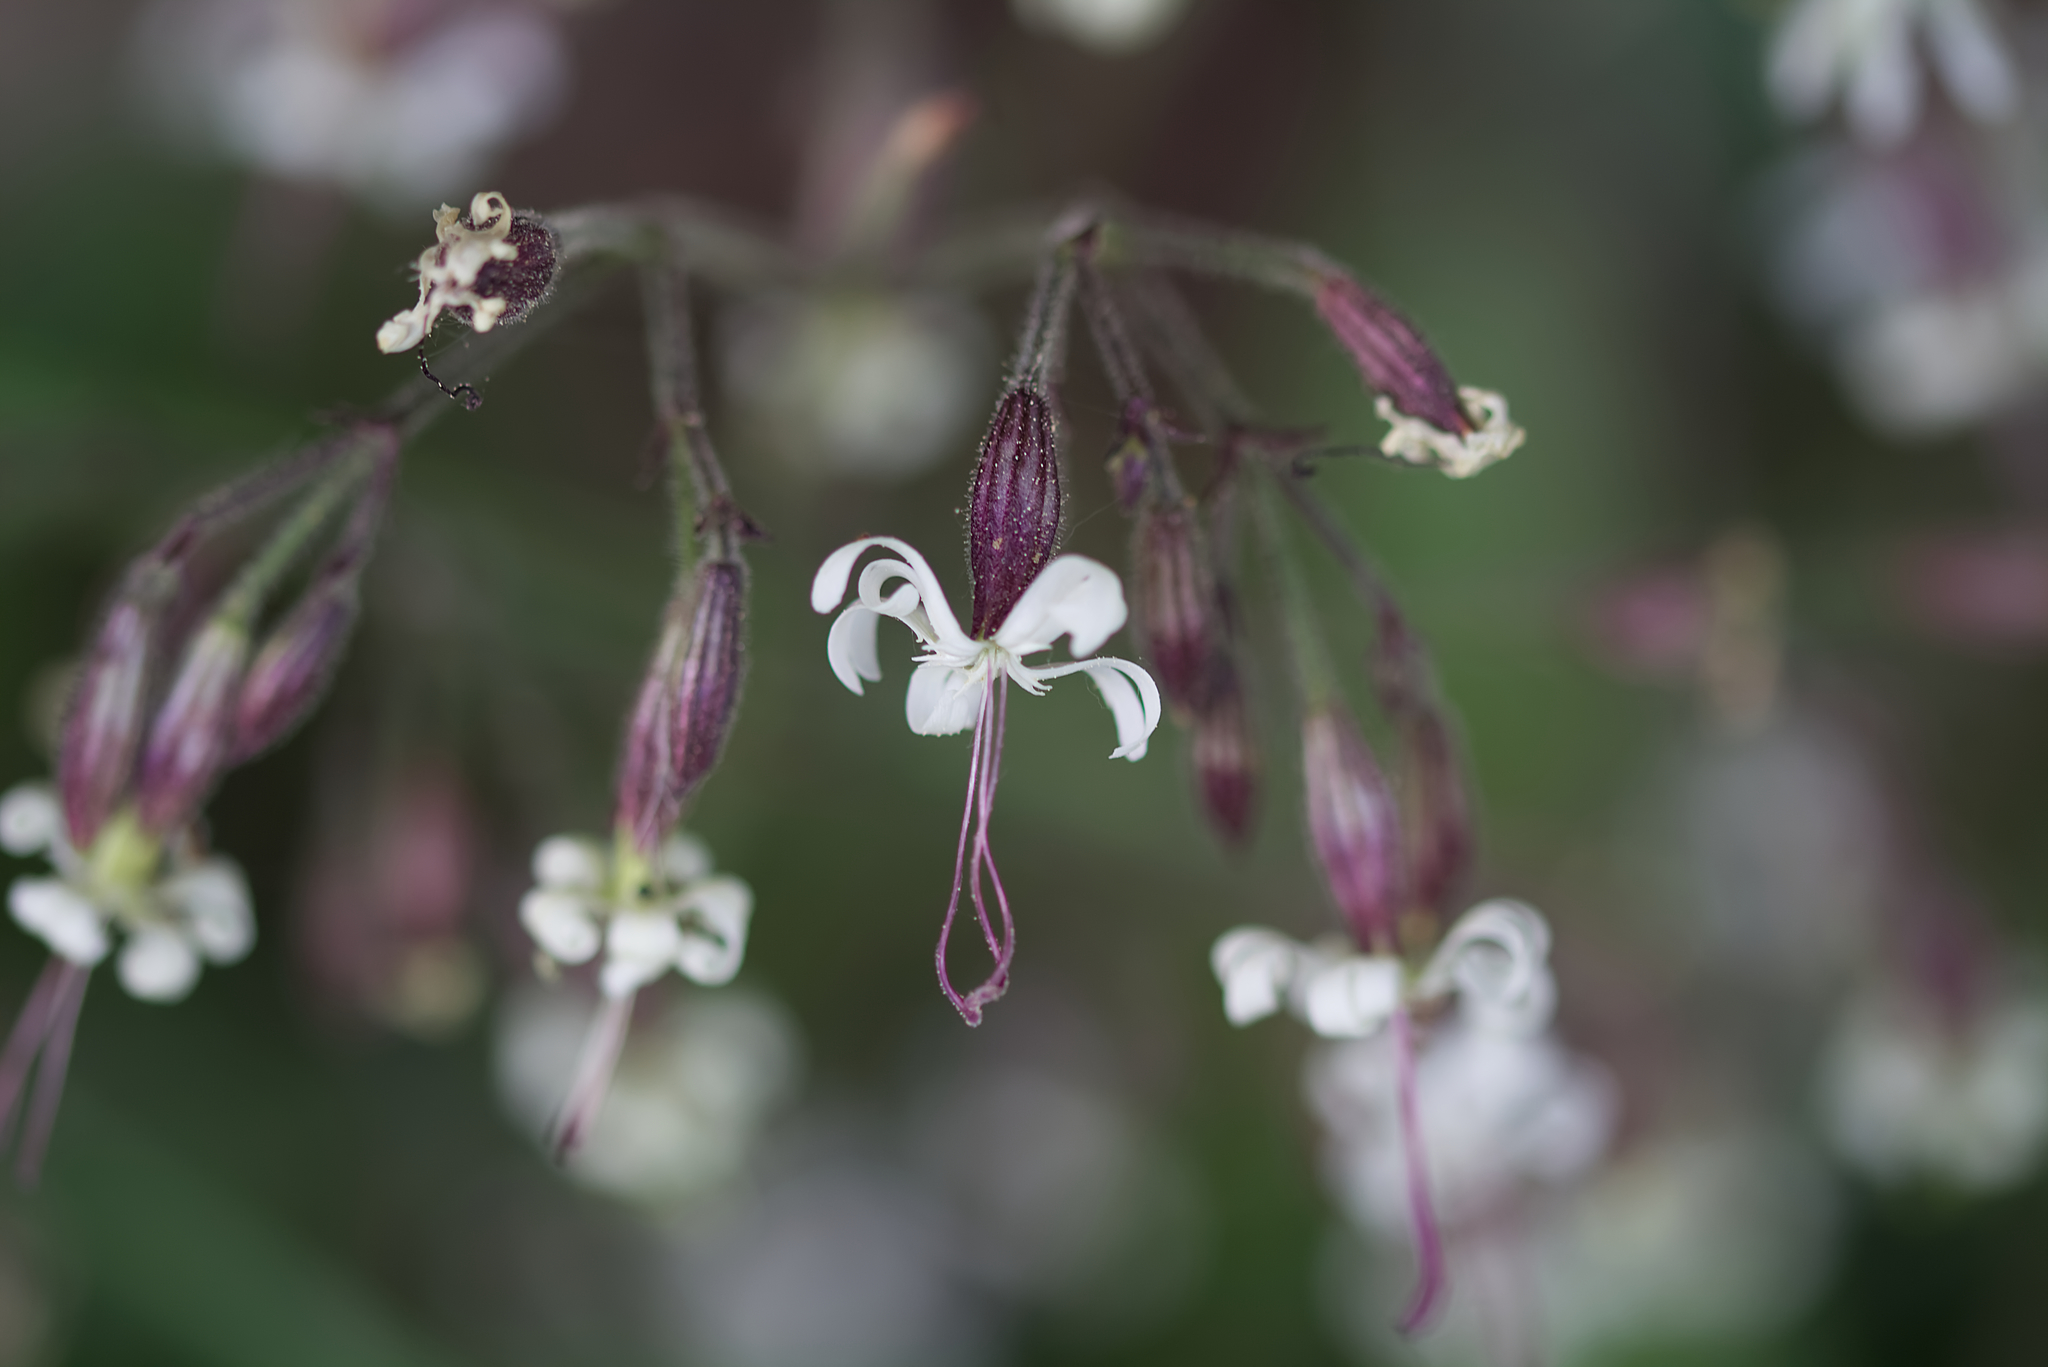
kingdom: Plantae
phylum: Tracheophyta
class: Magnoliopsida
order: Caryophyllales
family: Caryophyllaceae
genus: Silene
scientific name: Silene nutans
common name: Nottingham catchfly
